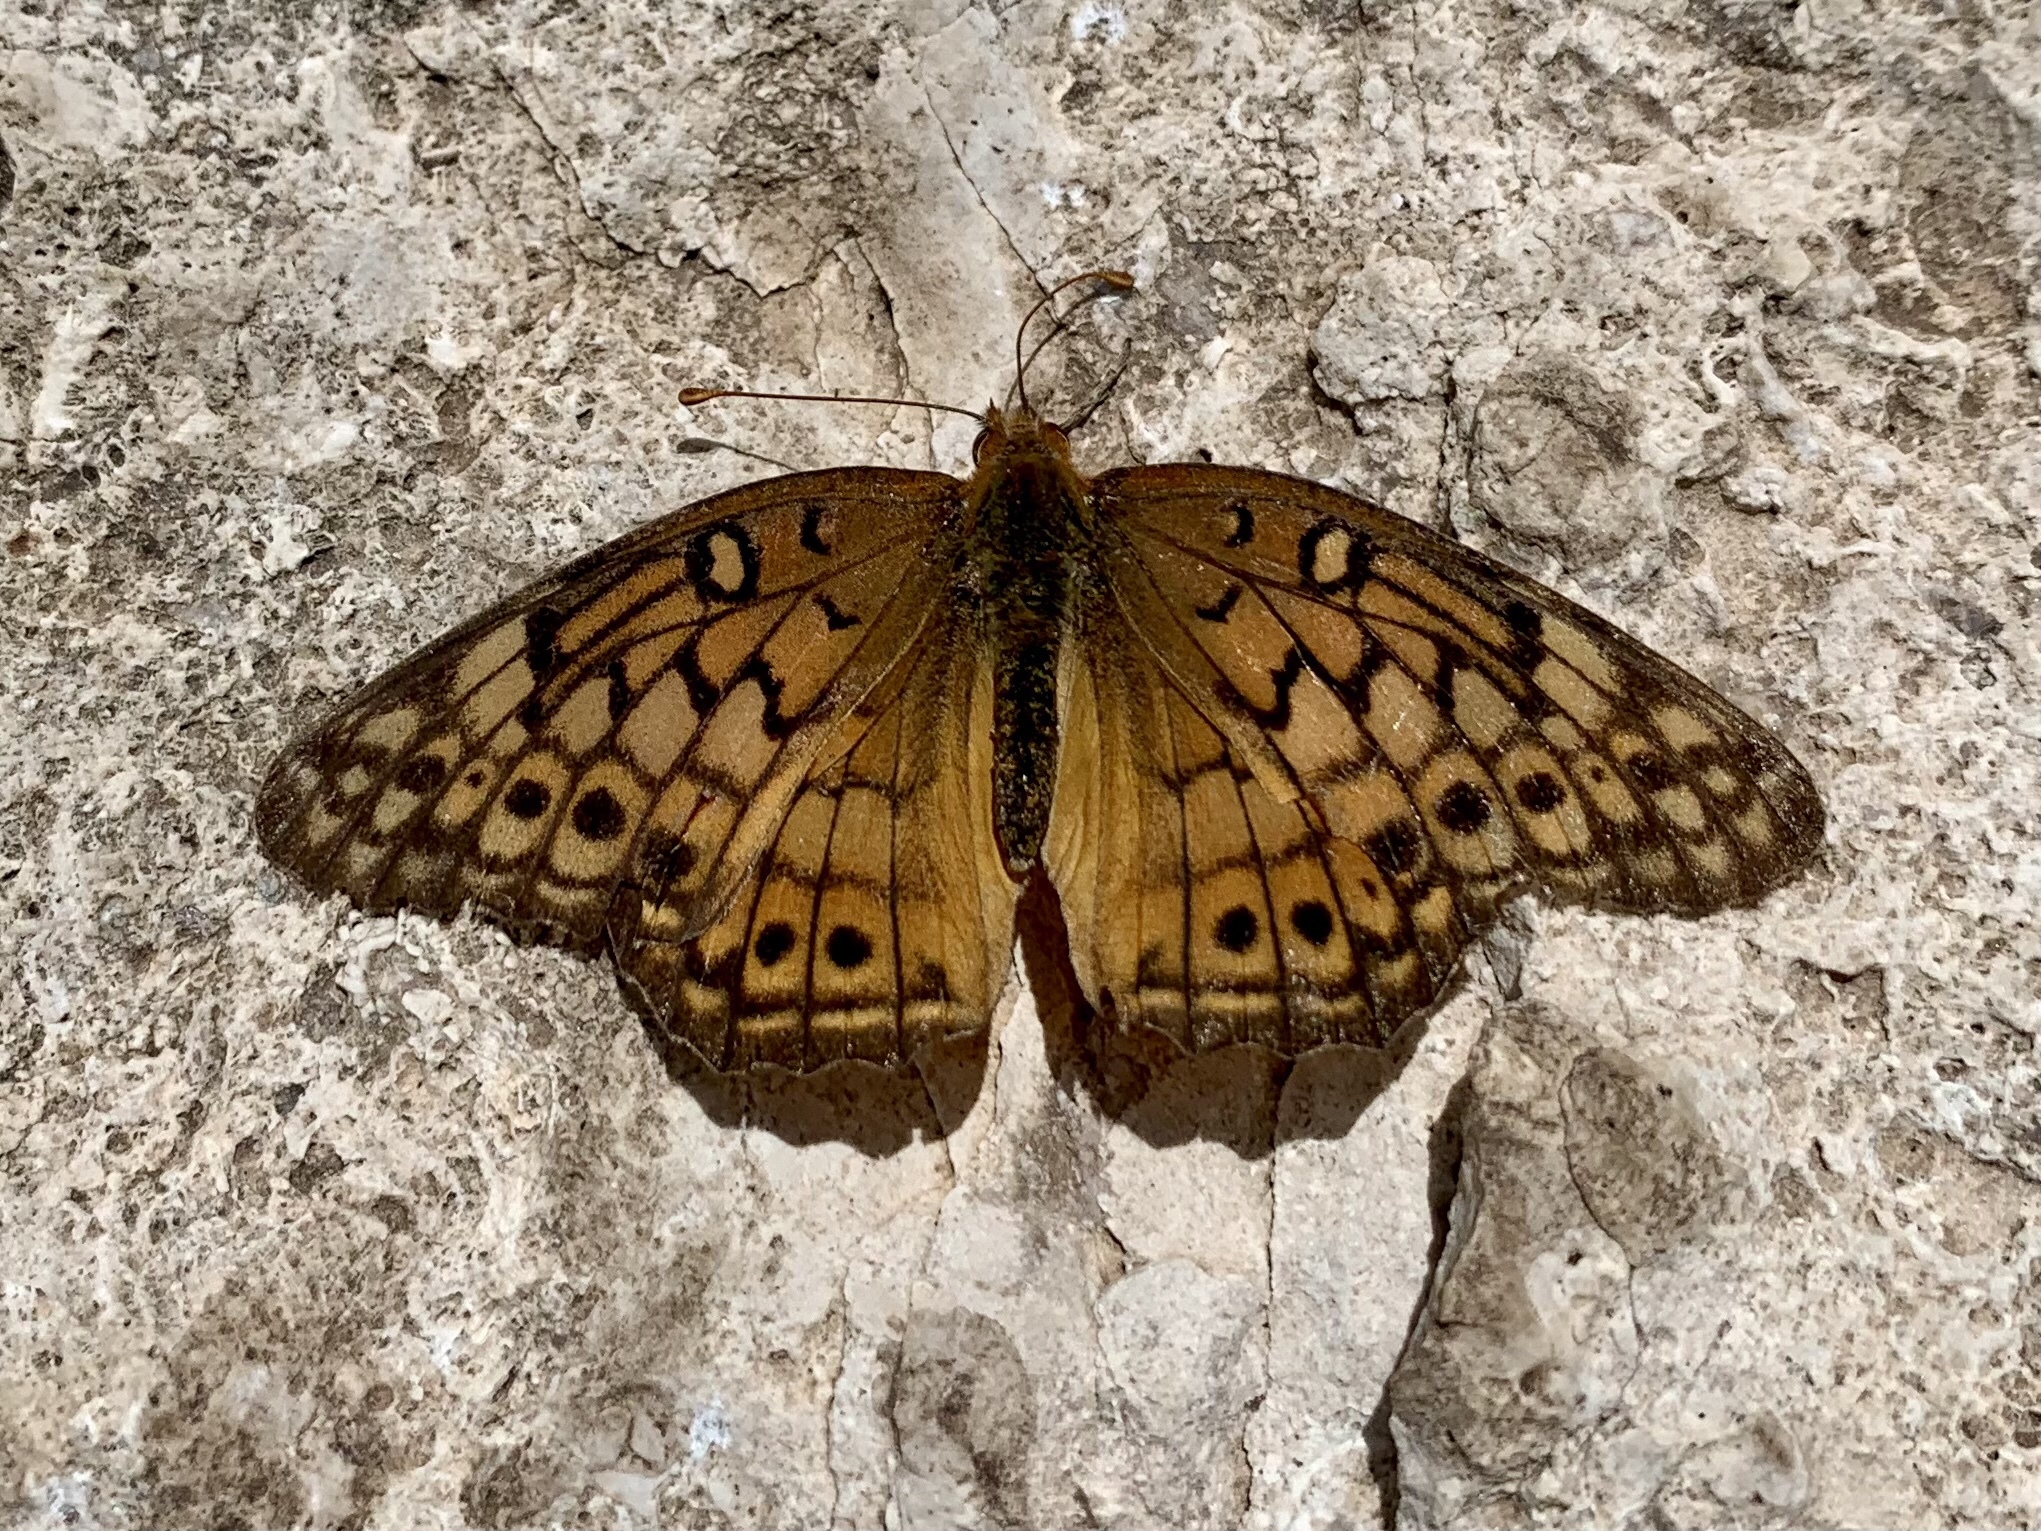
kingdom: Animalia
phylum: Arthropoda
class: Insecta
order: Lepidoptera
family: Nymphalidae
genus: Euptoieta
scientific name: Euptoieta claudia
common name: Variegated fritillary
